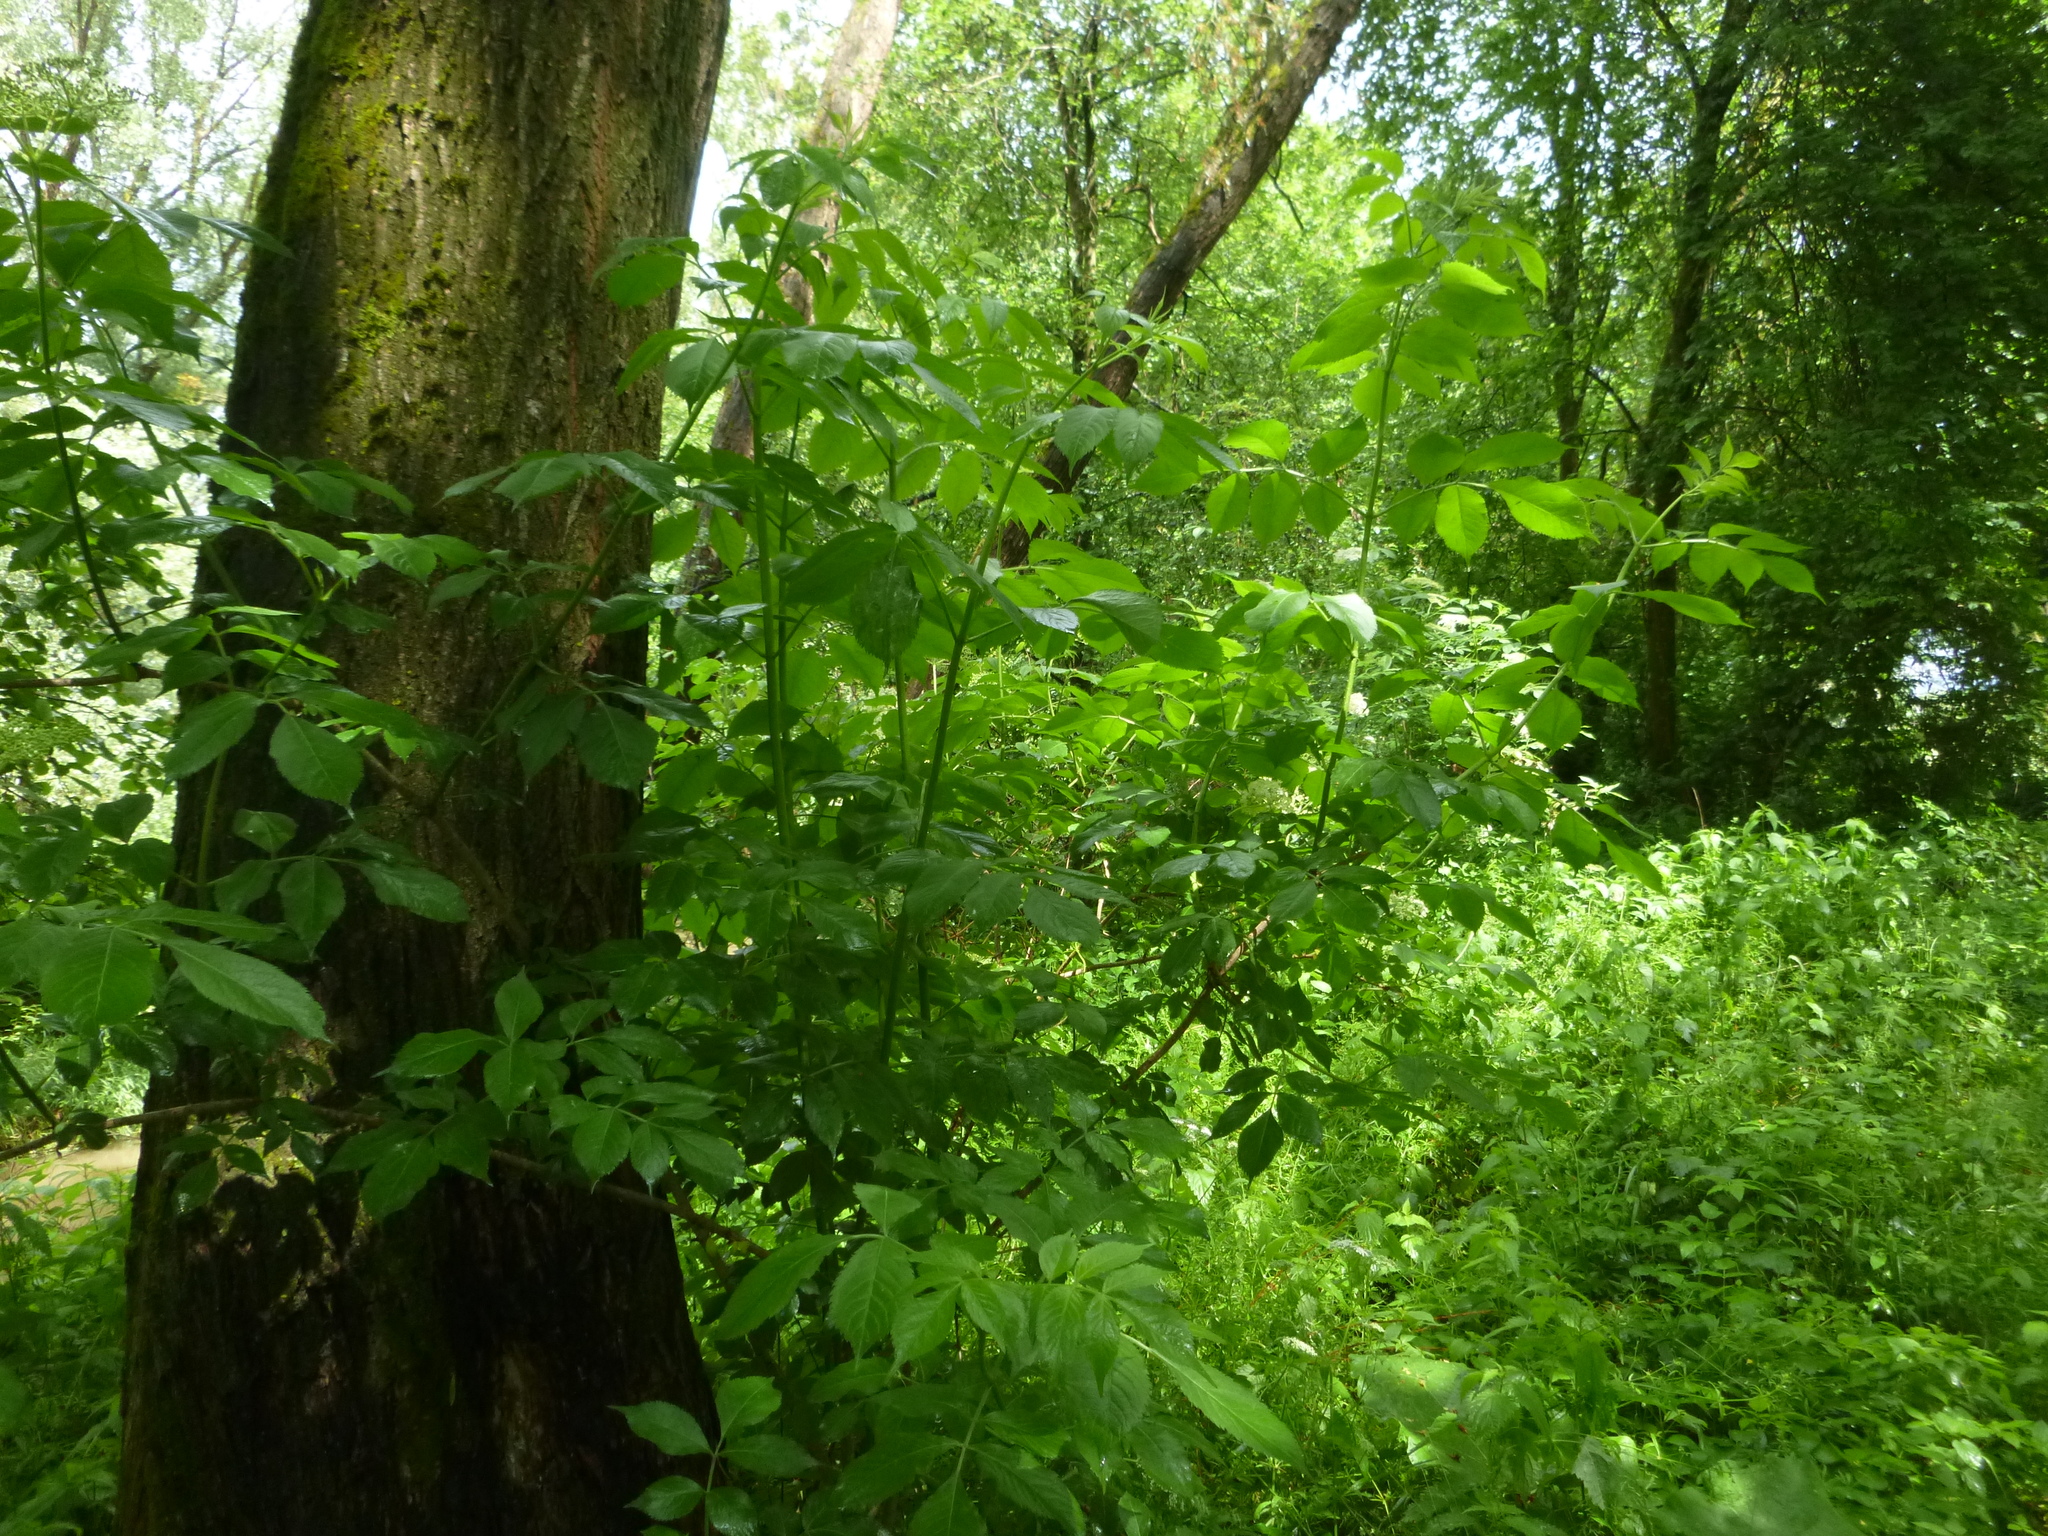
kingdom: Plantae
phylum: Tracheophyta
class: Magnoliopsida
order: Dipsacales
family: Viburnaceae
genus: Sambucus
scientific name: Sambucus nigra
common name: Elder
